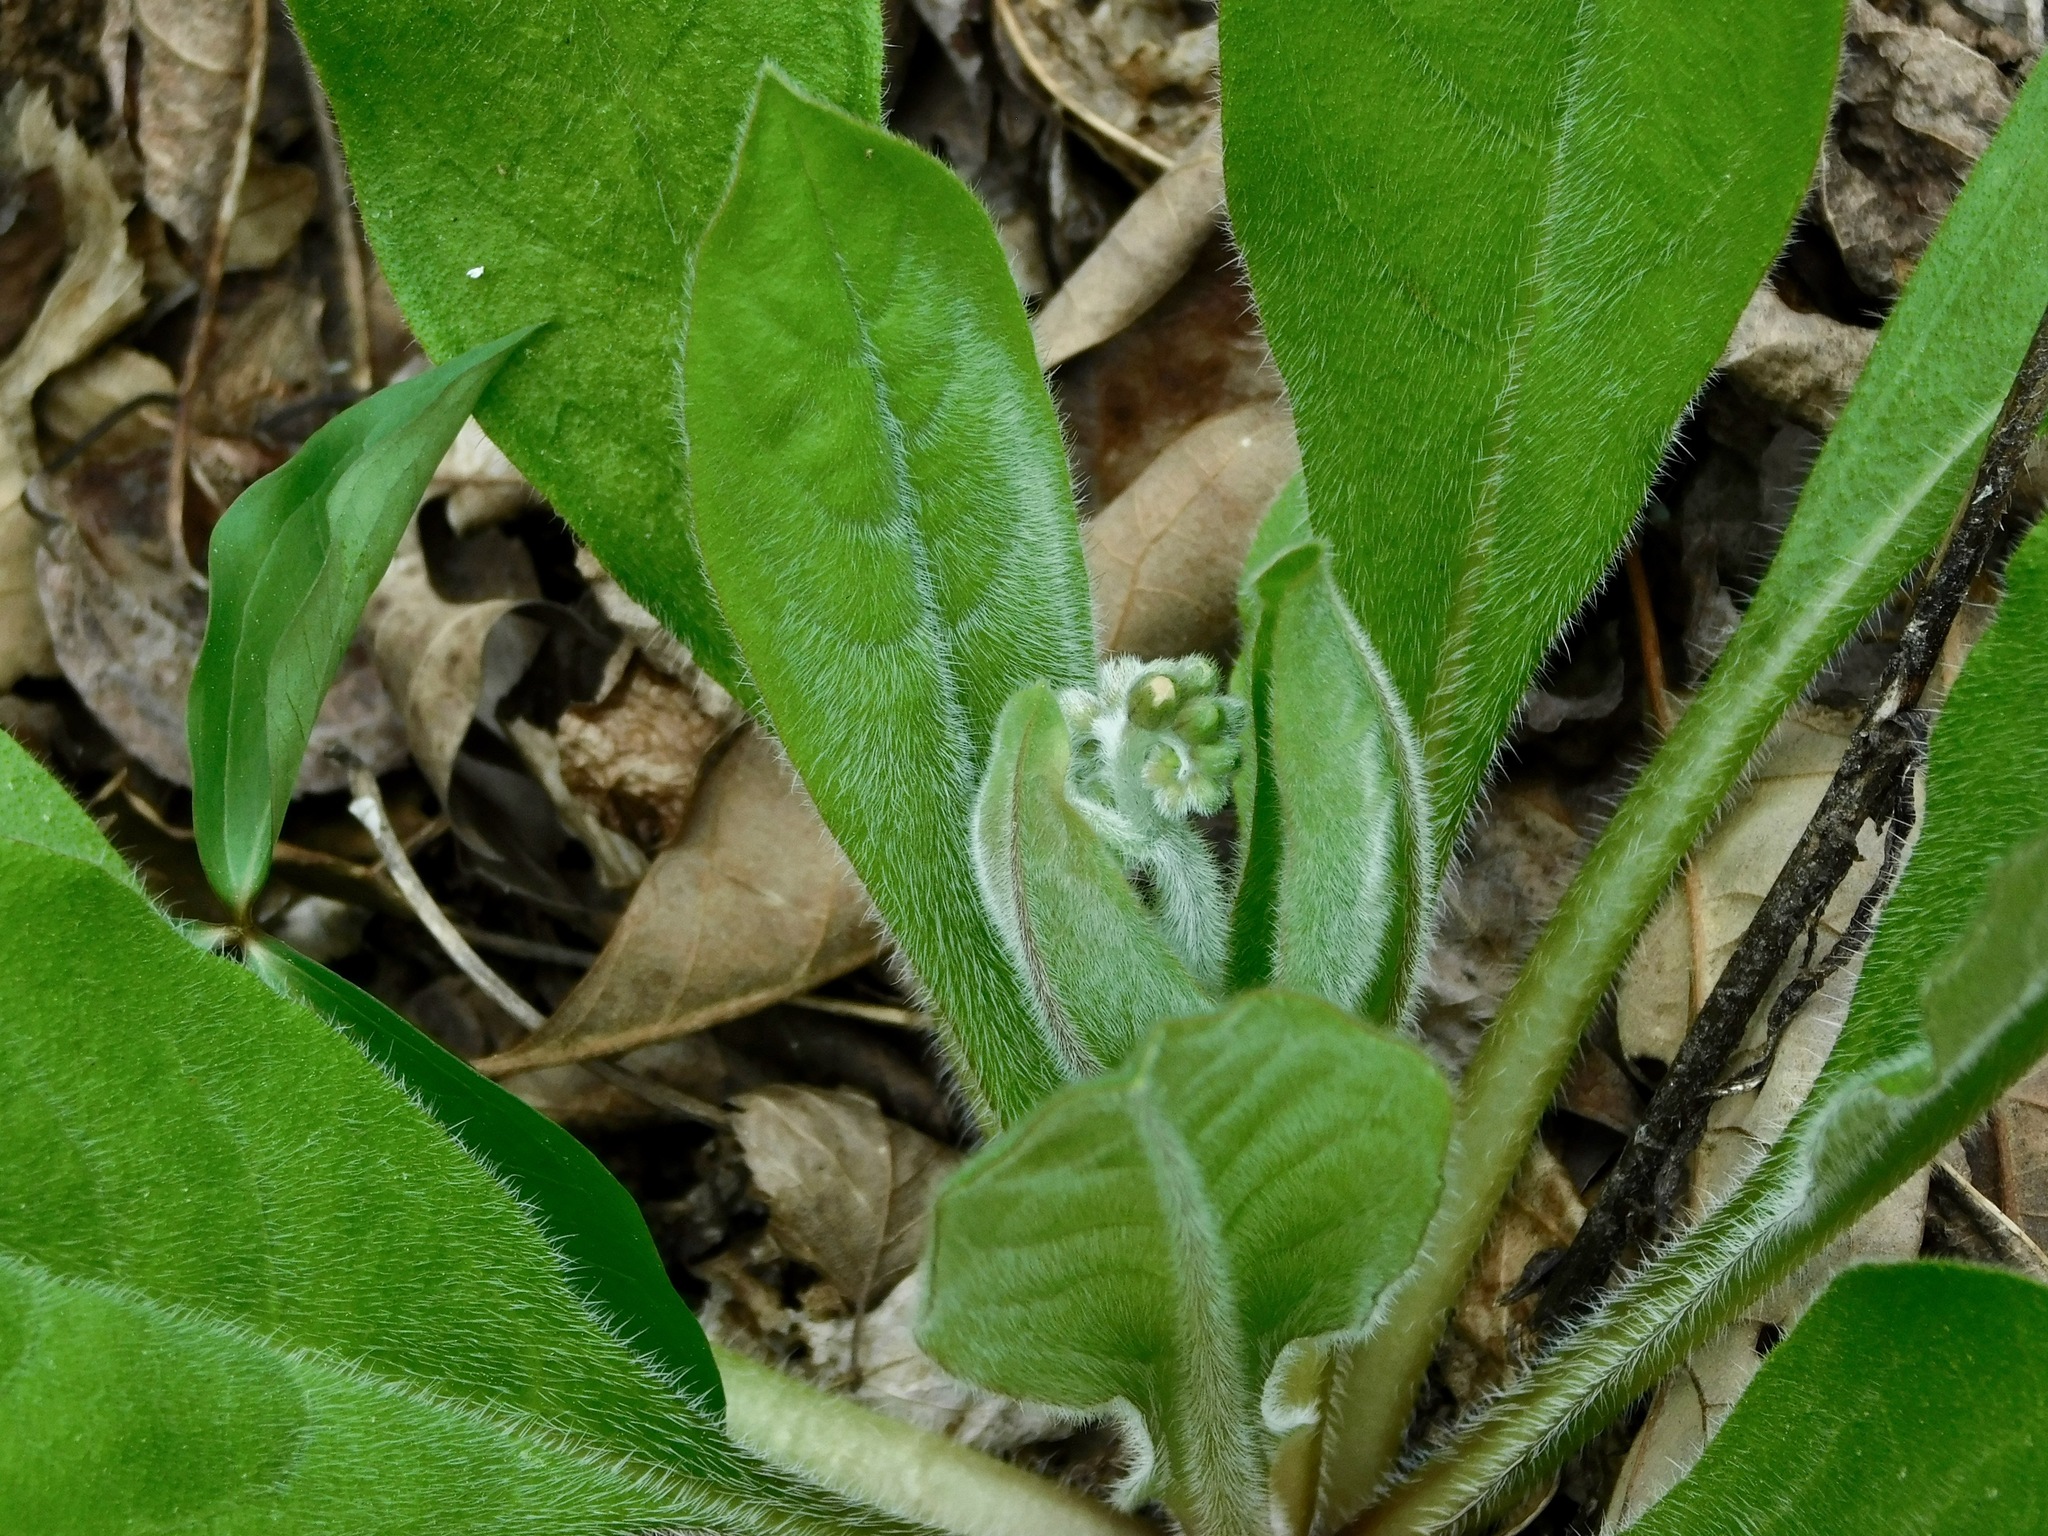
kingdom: Plantae
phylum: Tracheophyta
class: Magnoliopsida
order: Boraginales
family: Boraginaceae
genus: Andersonglossum
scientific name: Andersonglossum virginianum
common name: Wild comfrey
